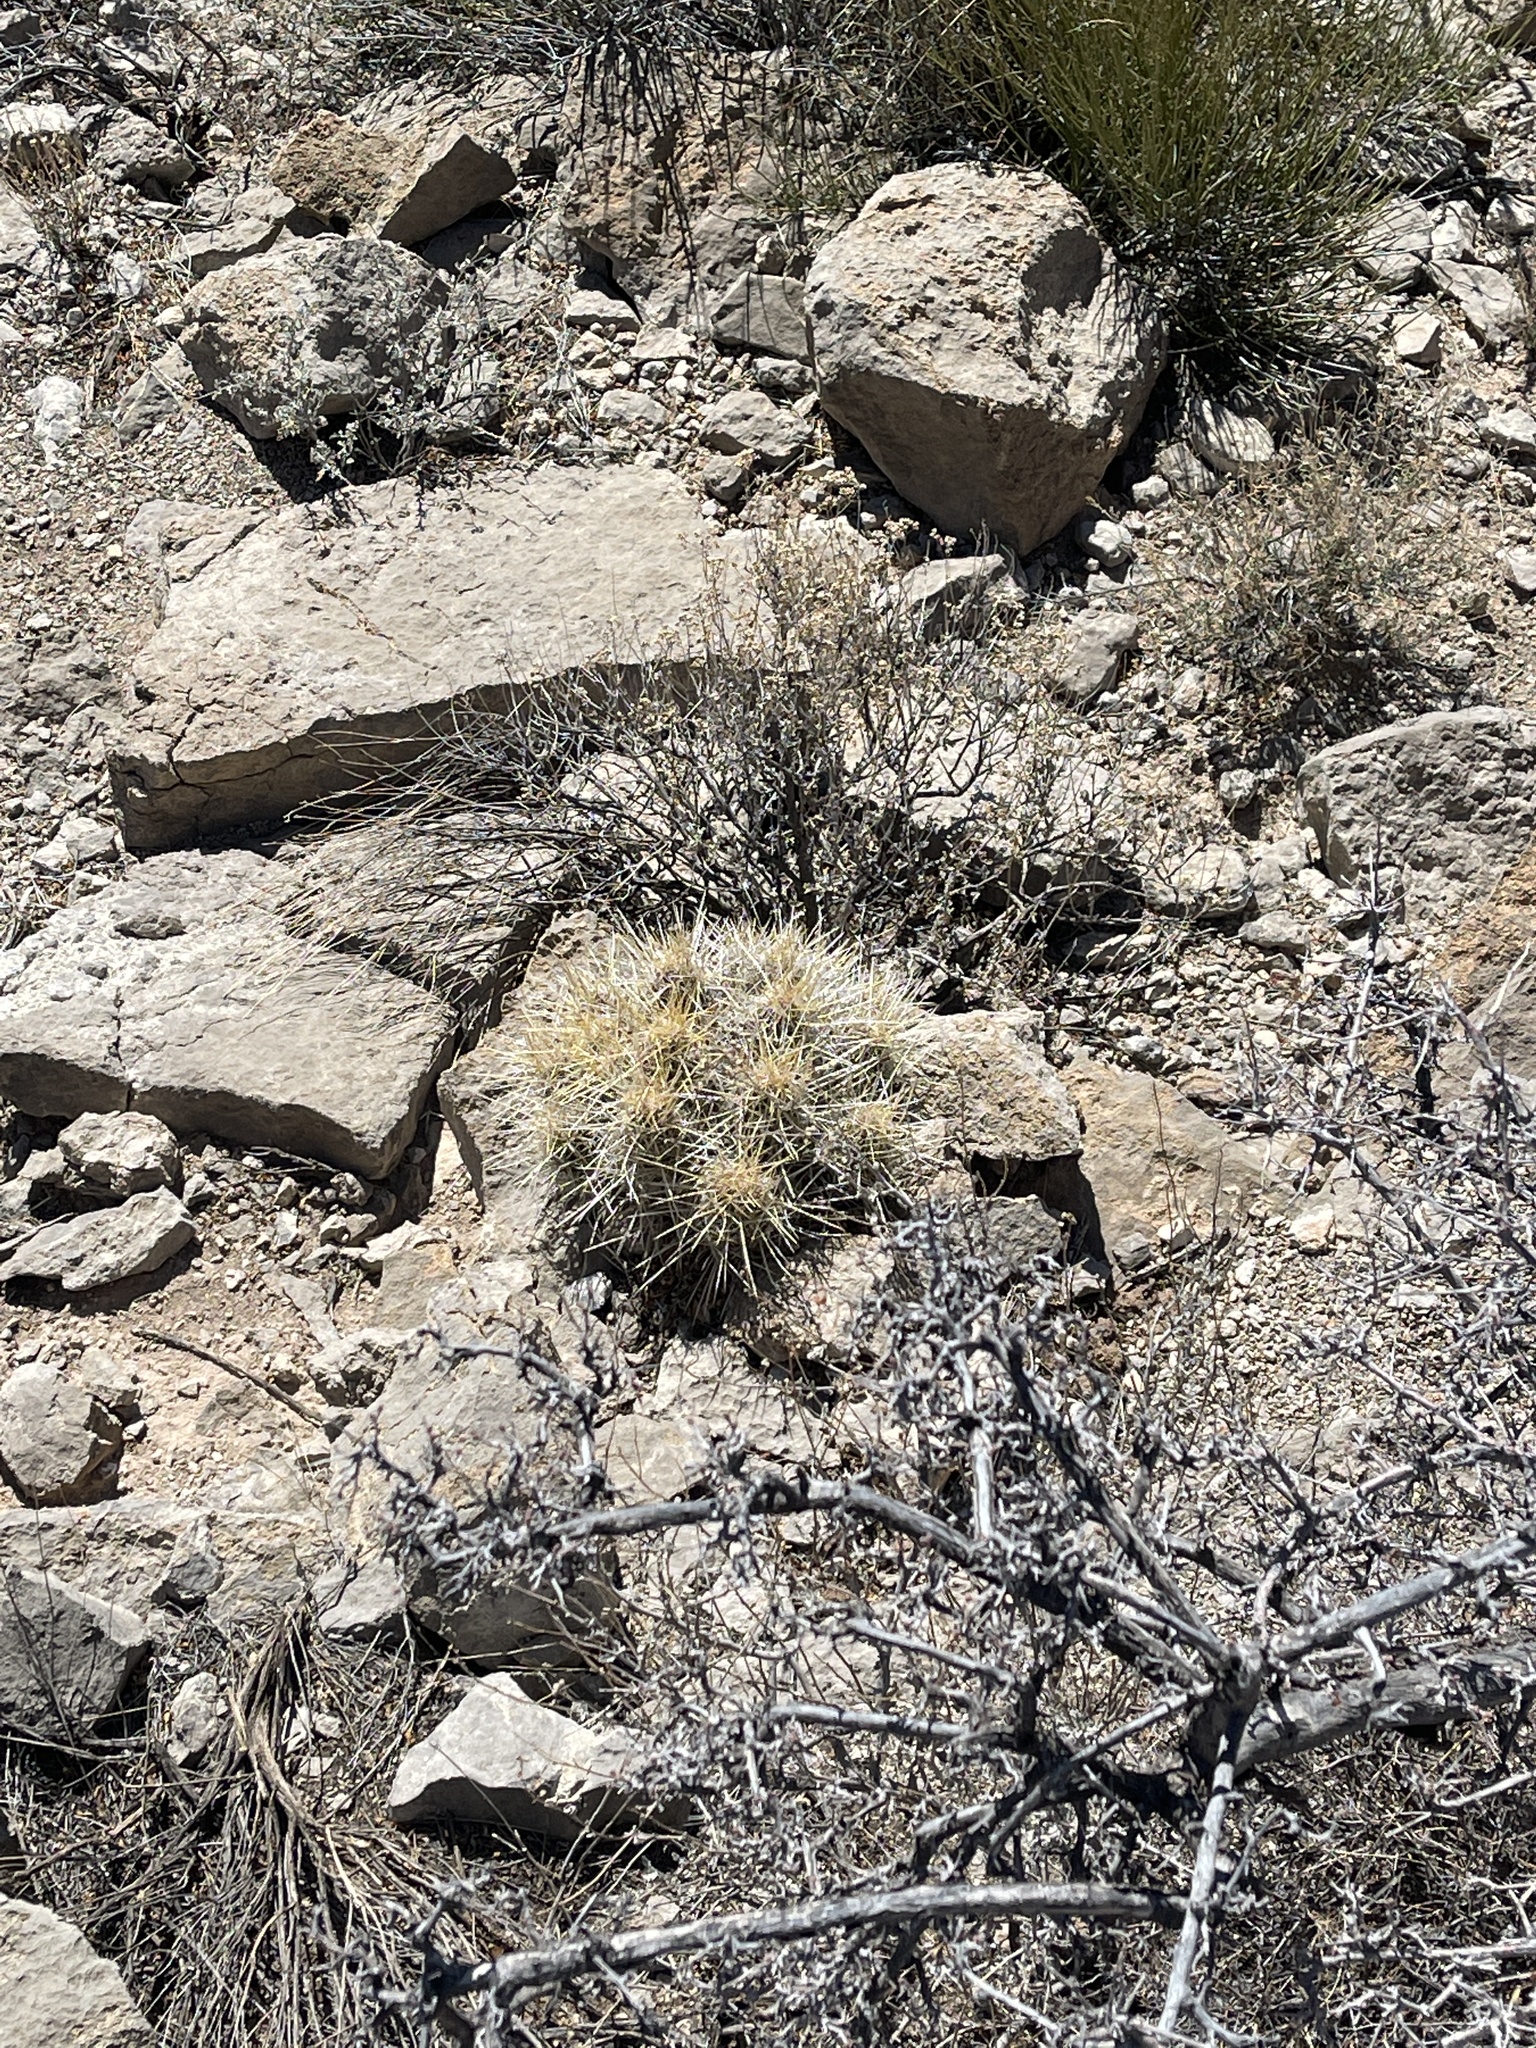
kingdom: Plantae
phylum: Tracheophyta
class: Magnoliopsida
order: Caryophyllales
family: Cactaceae
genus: Echinocereus
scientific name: Echinocereus stramineus
